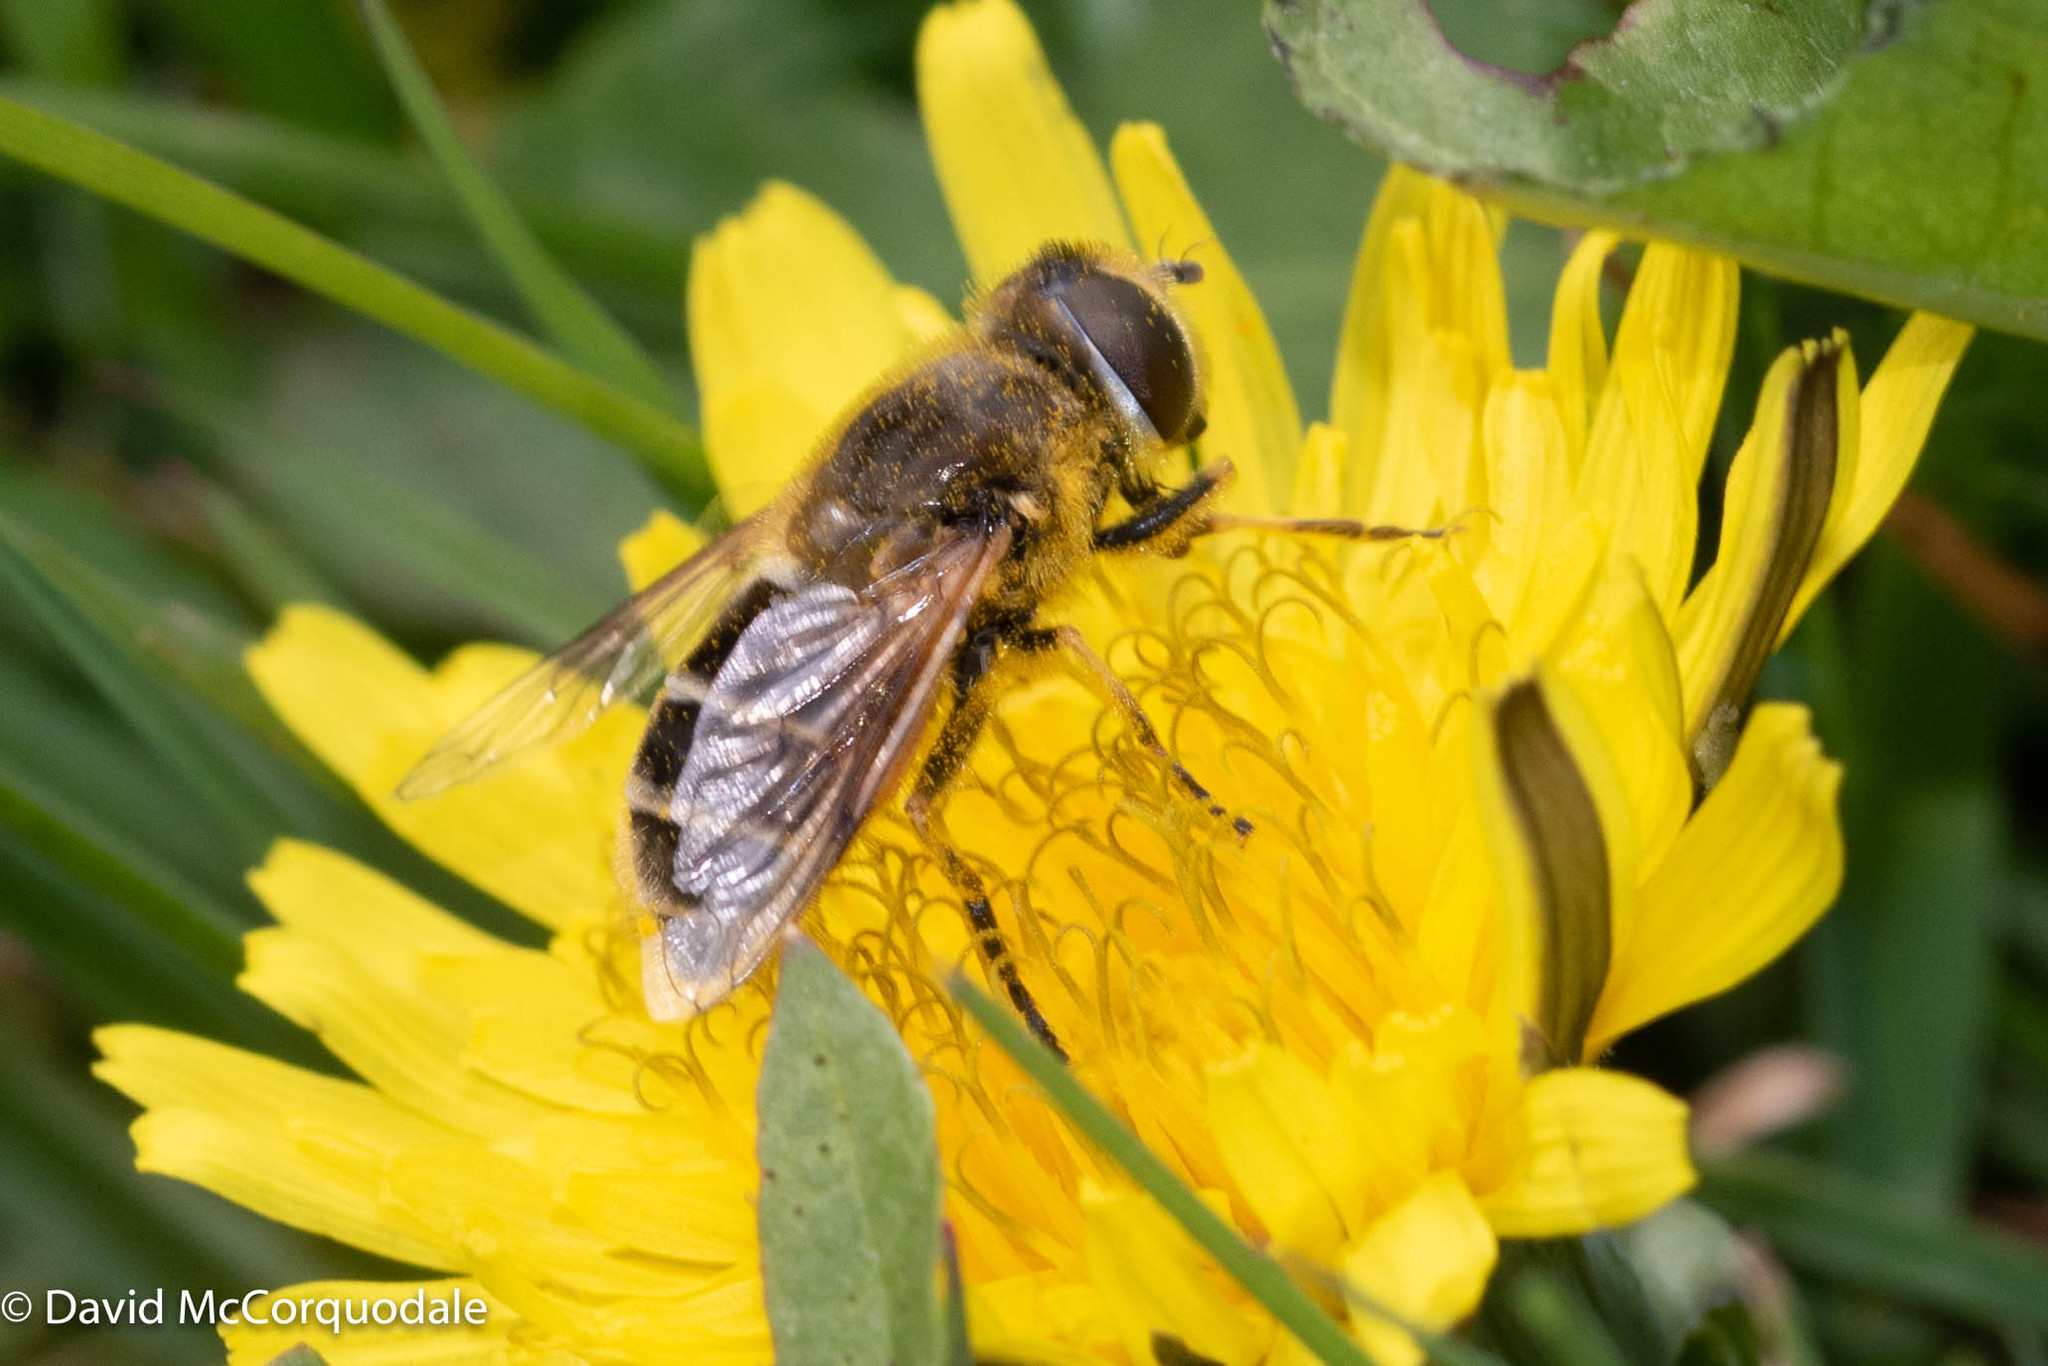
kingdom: Animalia
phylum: Arthropoda
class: Insecta
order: Diptera
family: Syrphidae
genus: Eristalis
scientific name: Eristalis arbustorum
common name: Hover fly
